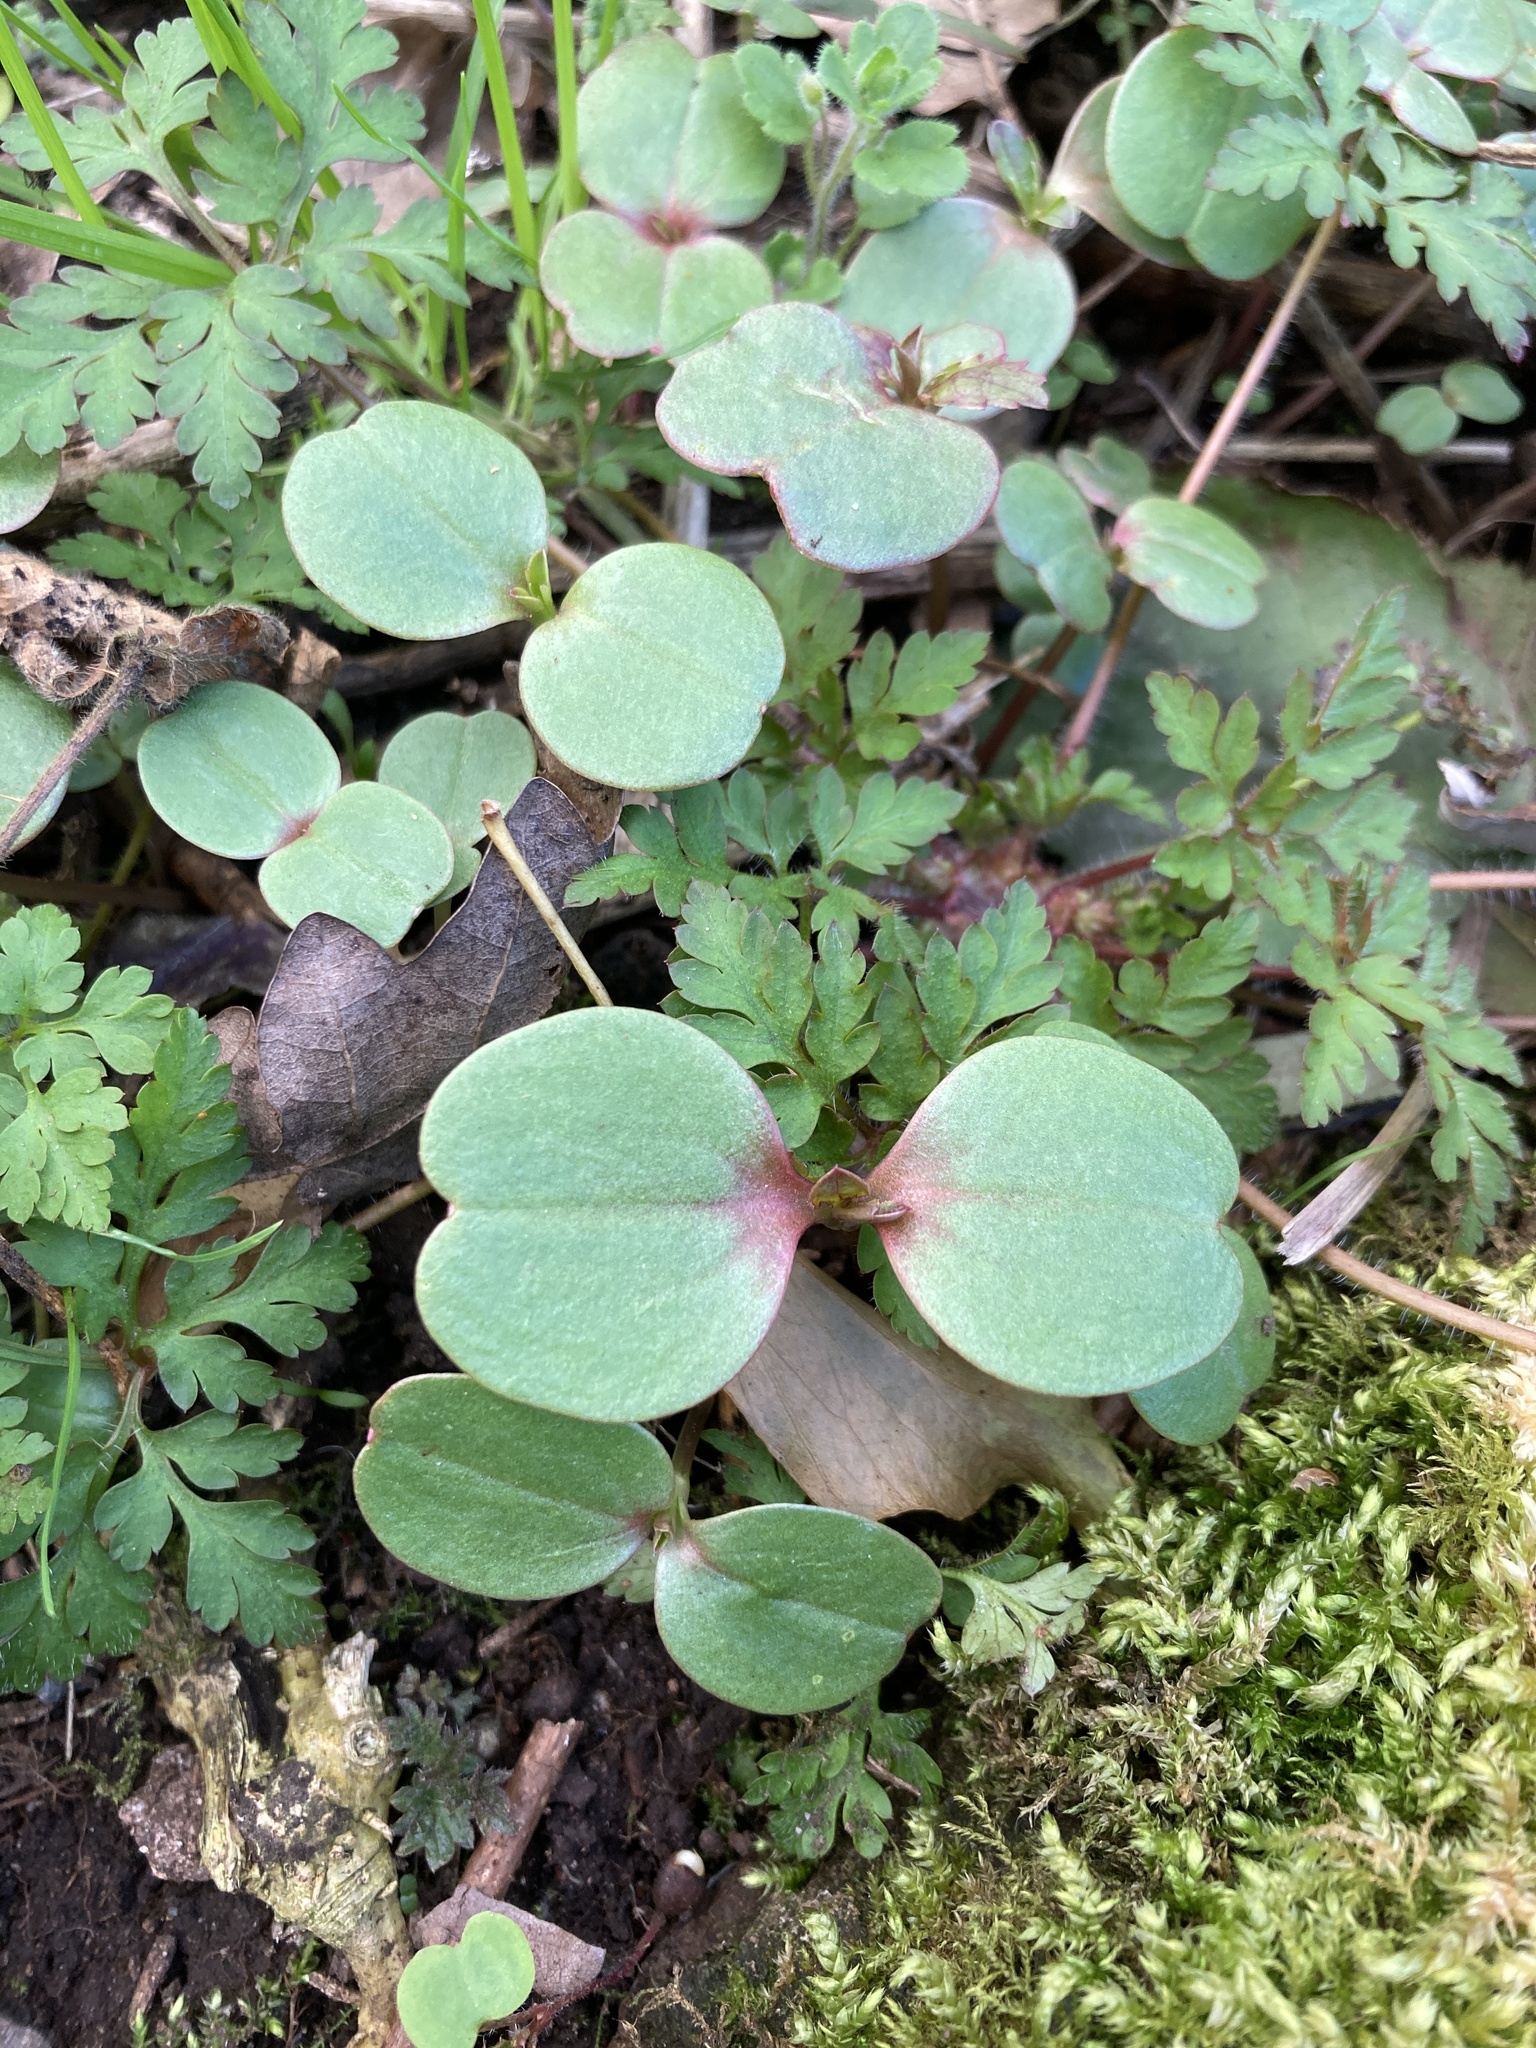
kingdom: Plantae
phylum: Tracheophyta
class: Magnoliopsida
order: Ericales
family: Balsaminaceae
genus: Impatiens
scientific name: Impatiens glandulifera
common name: Himalayan balsam
